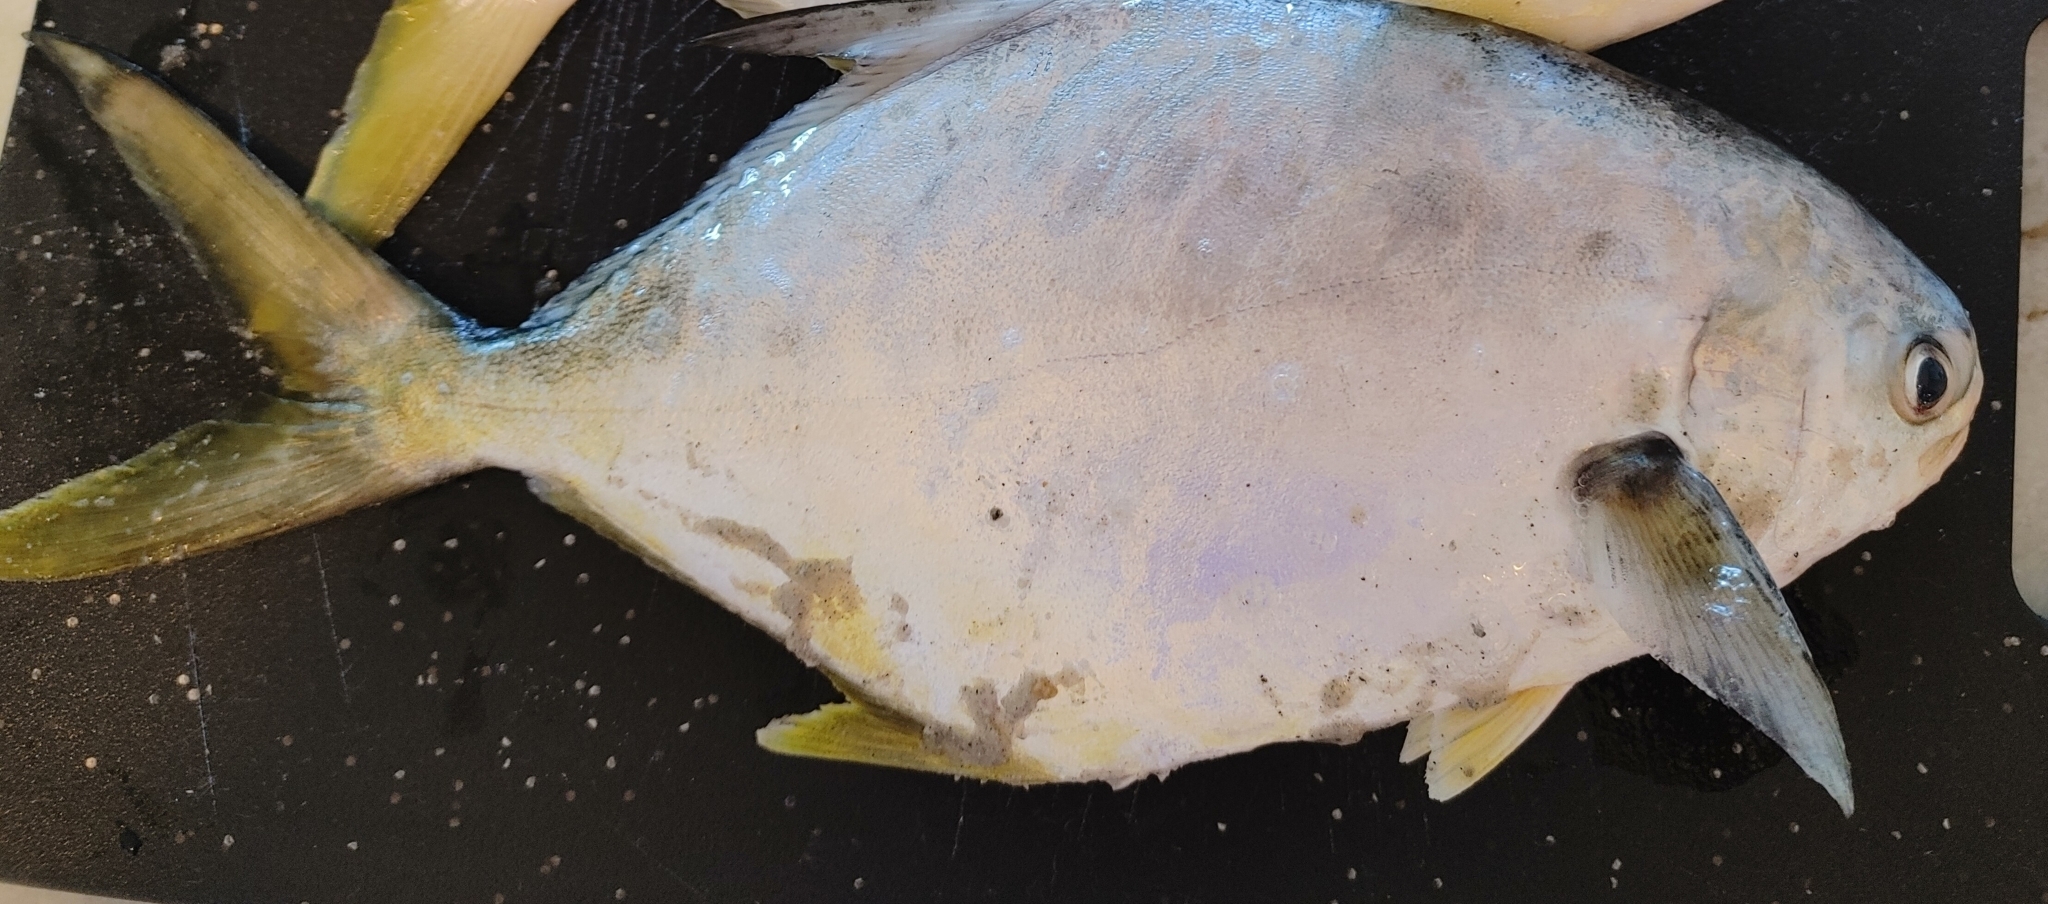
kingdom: Animalia
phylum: Chordata
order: Perciformes
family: Carangidae
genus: Trachinotus
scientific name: Trachinotus carolinus
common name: Florida pompano
